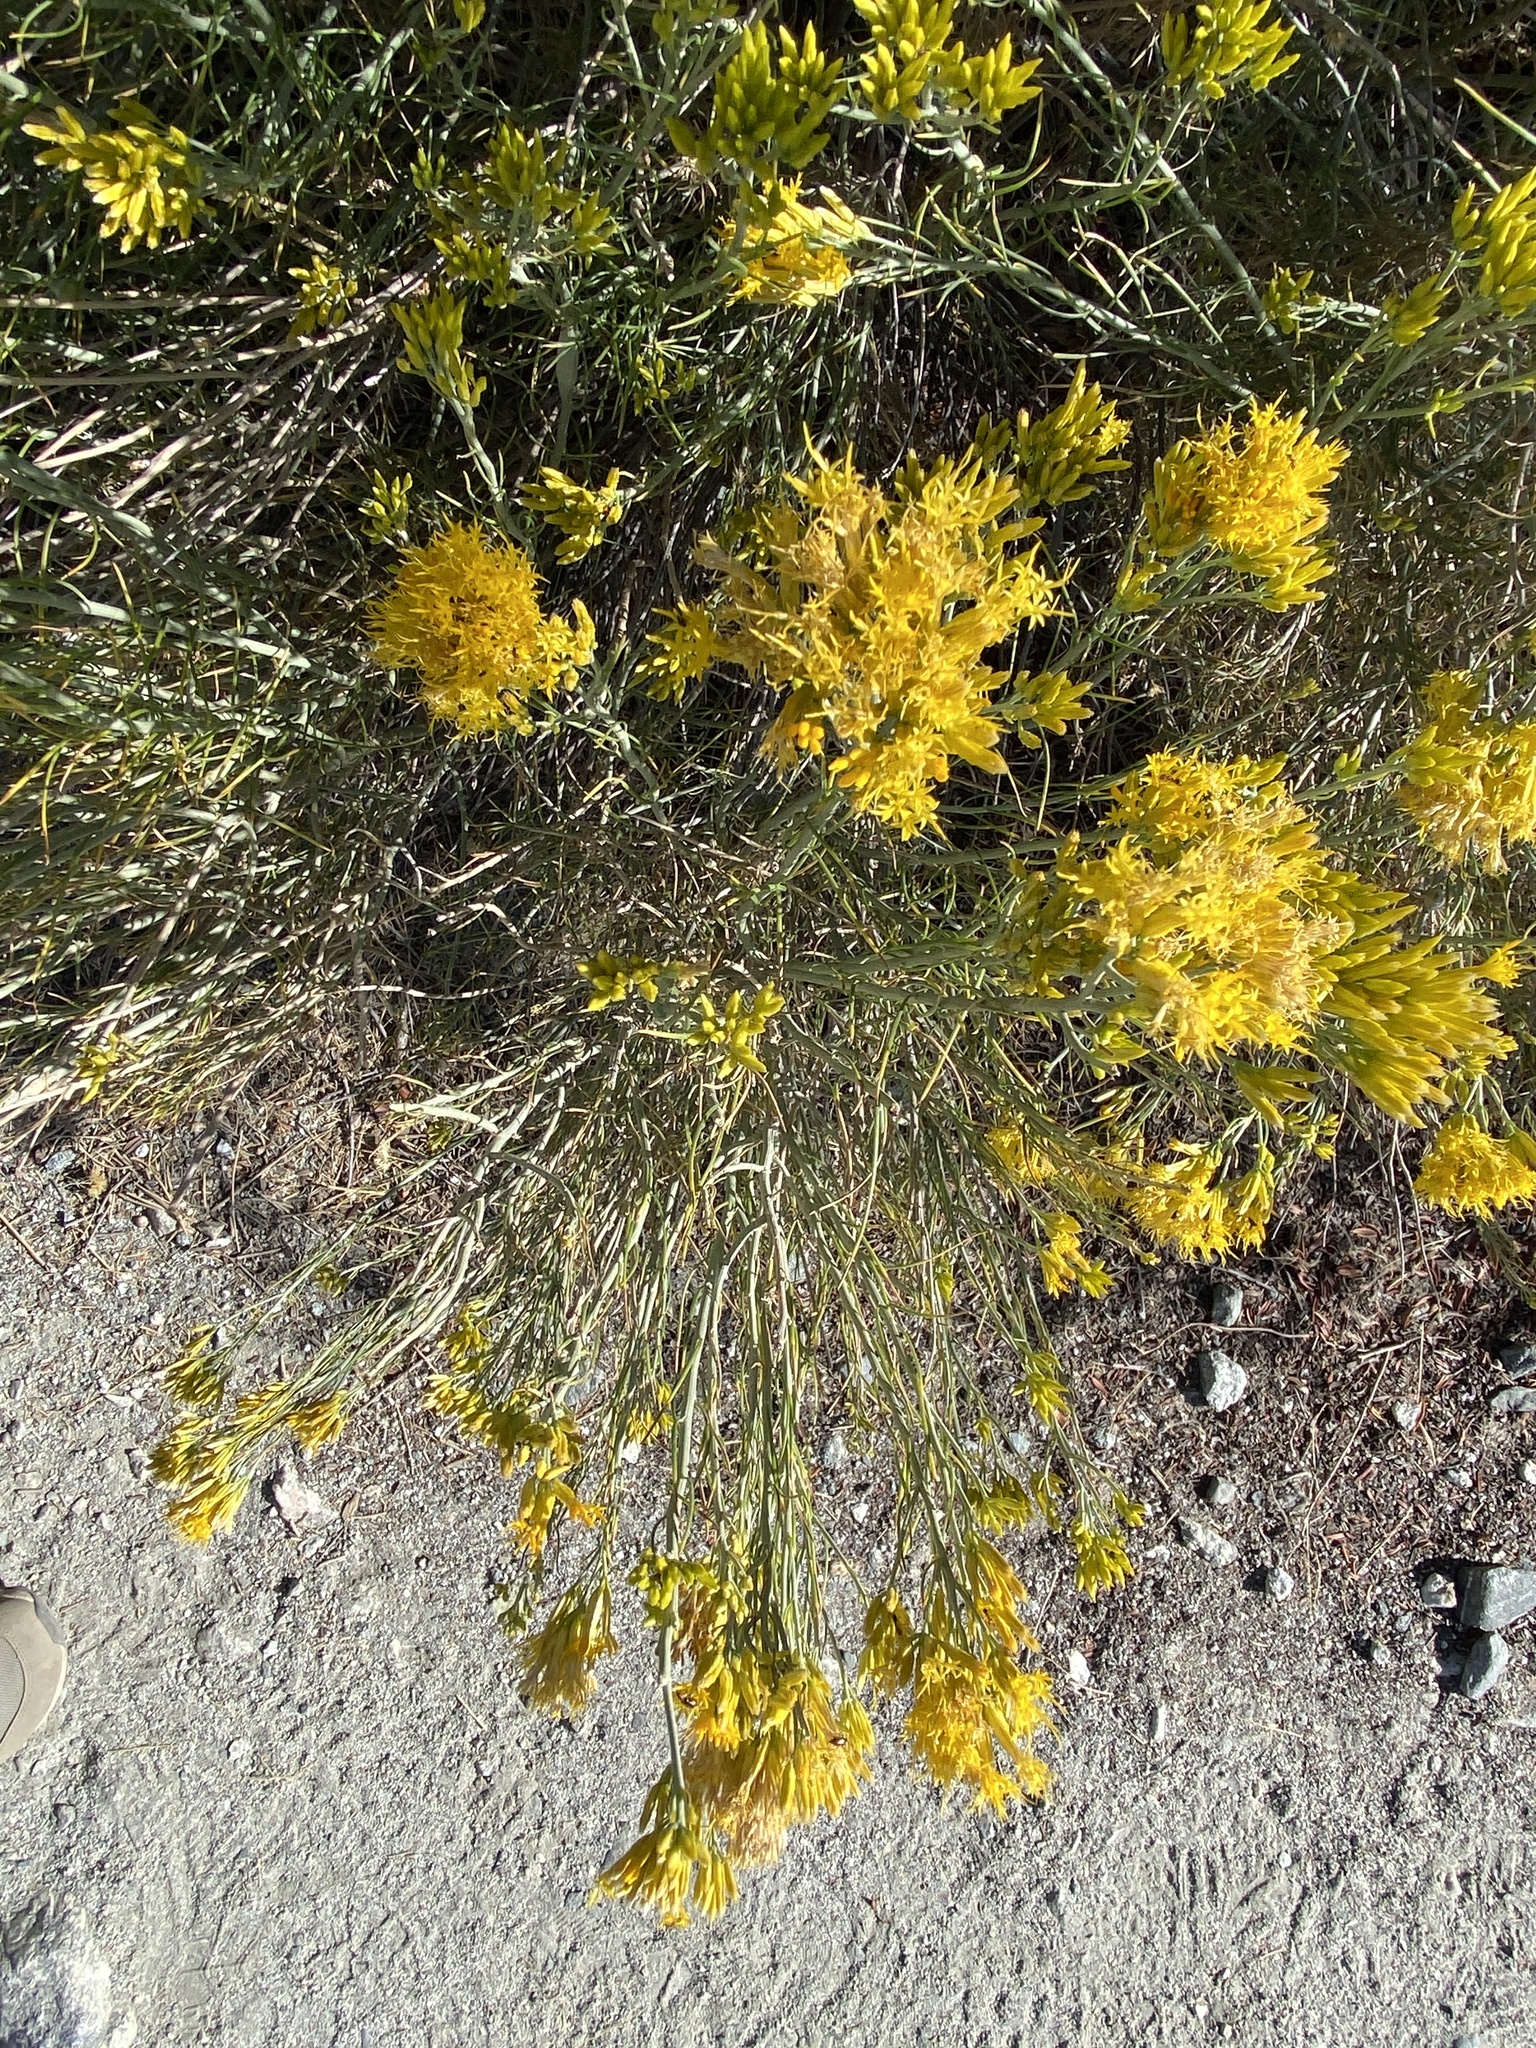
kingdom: Plantae
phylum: Tracheophyta
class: Magnoliopsida
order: Asterales
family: Asteraceae
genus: Ericameria
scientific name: Ericameria nauseosa
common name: Rubber rabbitbrush
